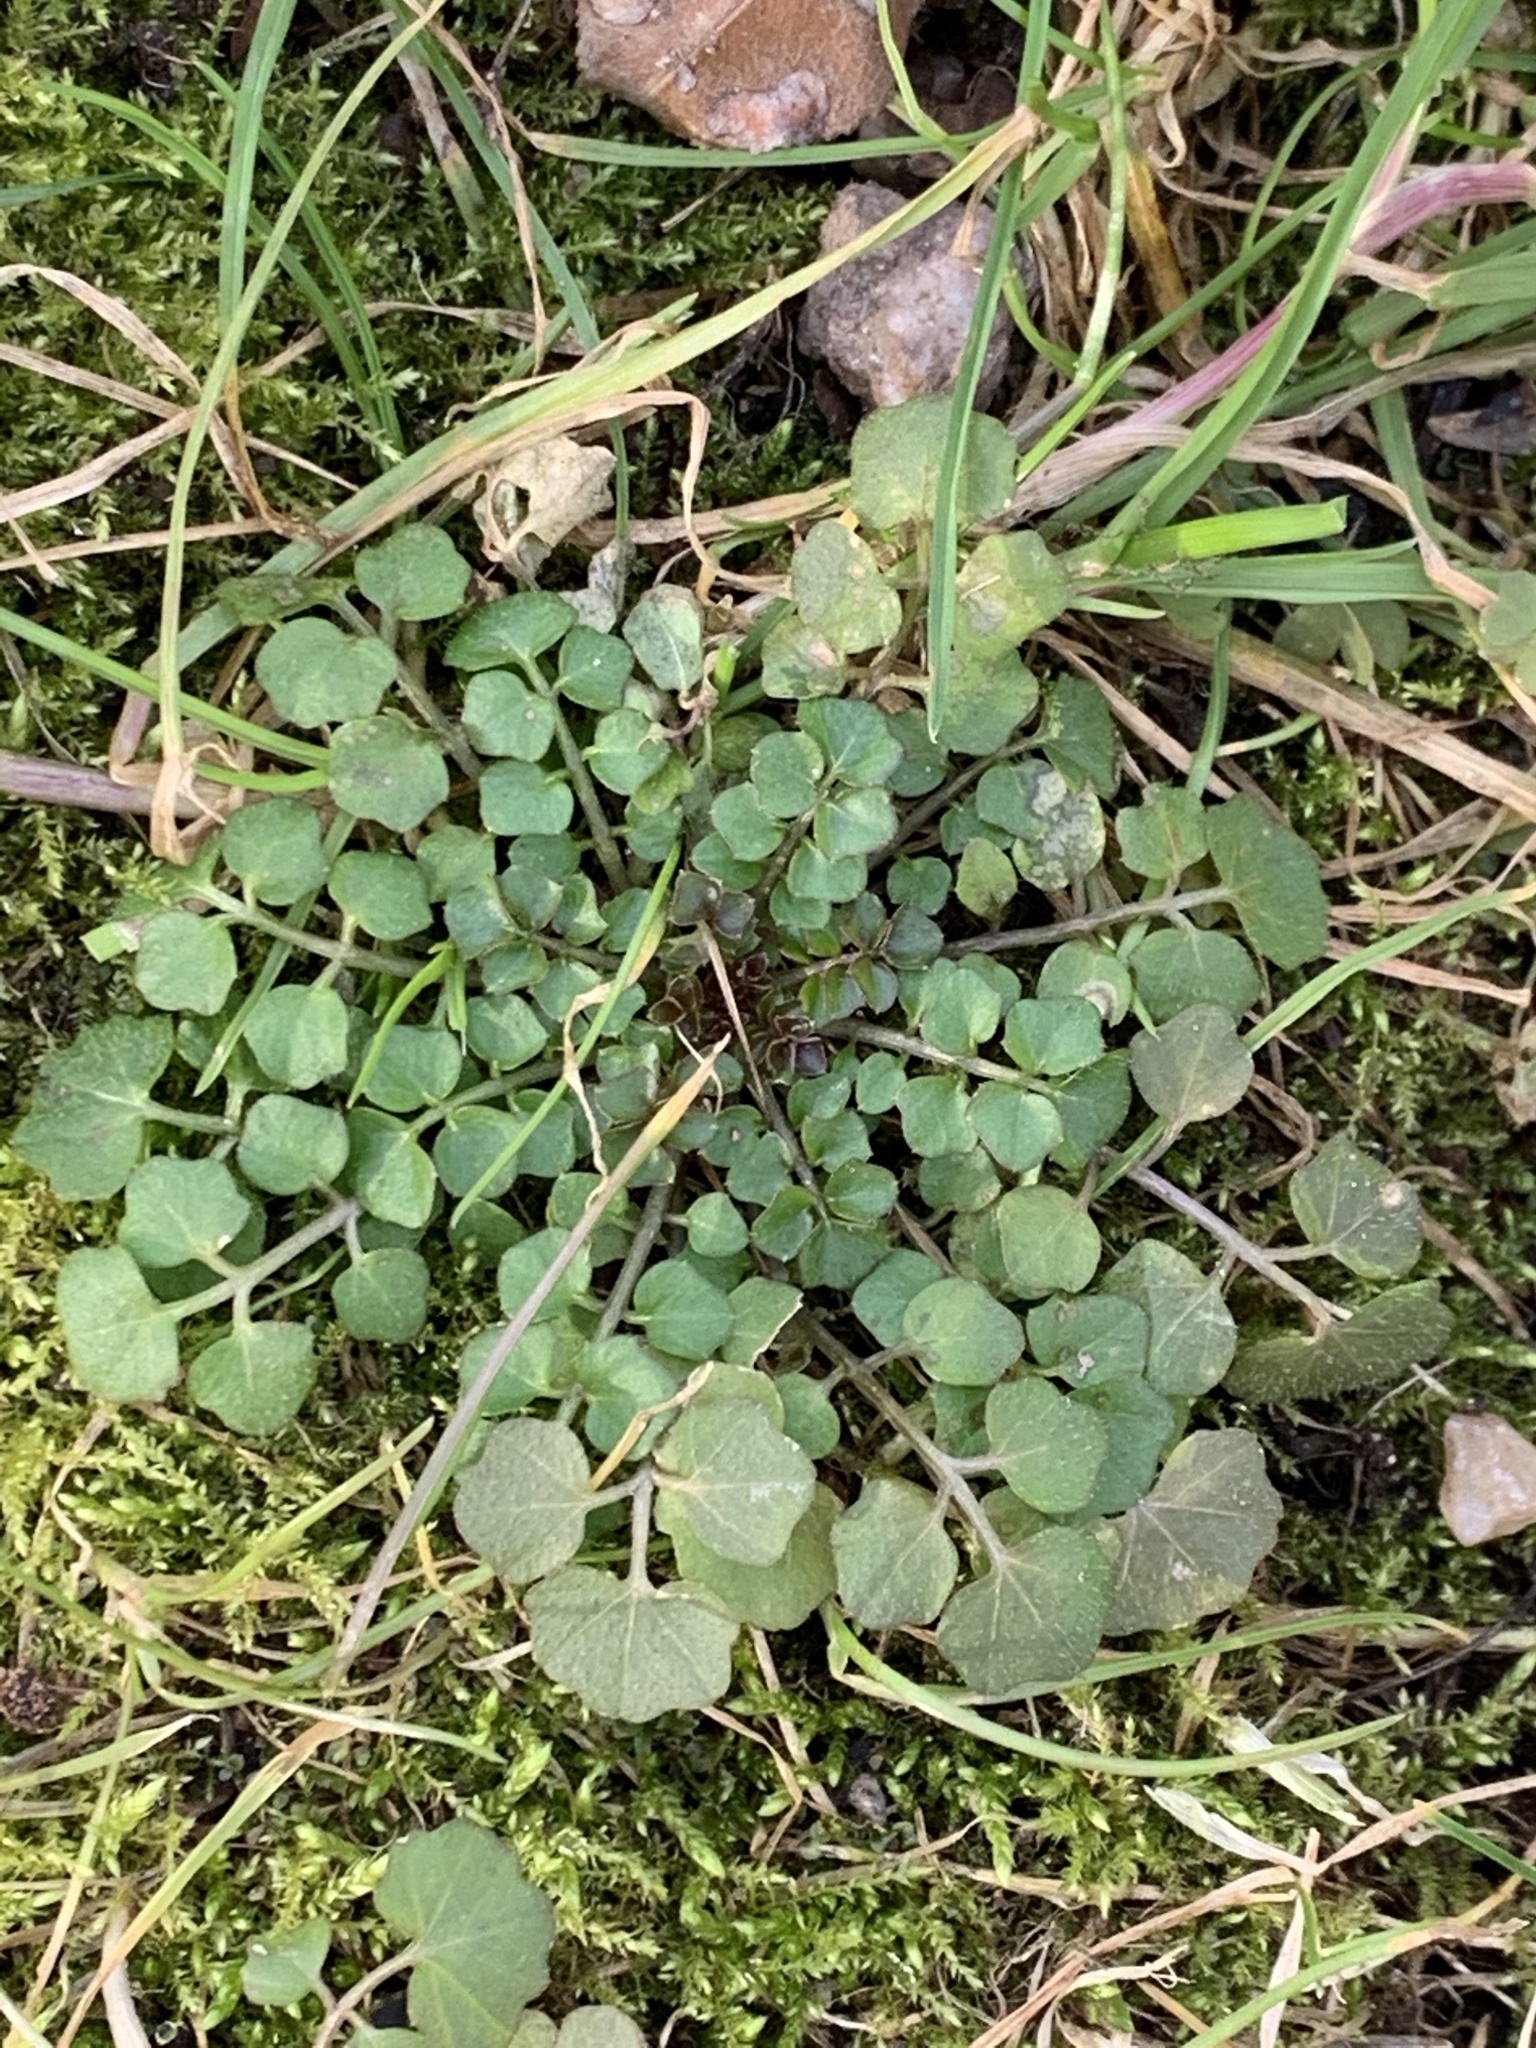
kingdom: Plantae
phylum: Tracheophyta
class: Magnoliopsida
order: Brassicales
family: Brassicaceae
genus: Cardamine
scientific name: Cardamine hirsuta
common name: Hairy bittercress
